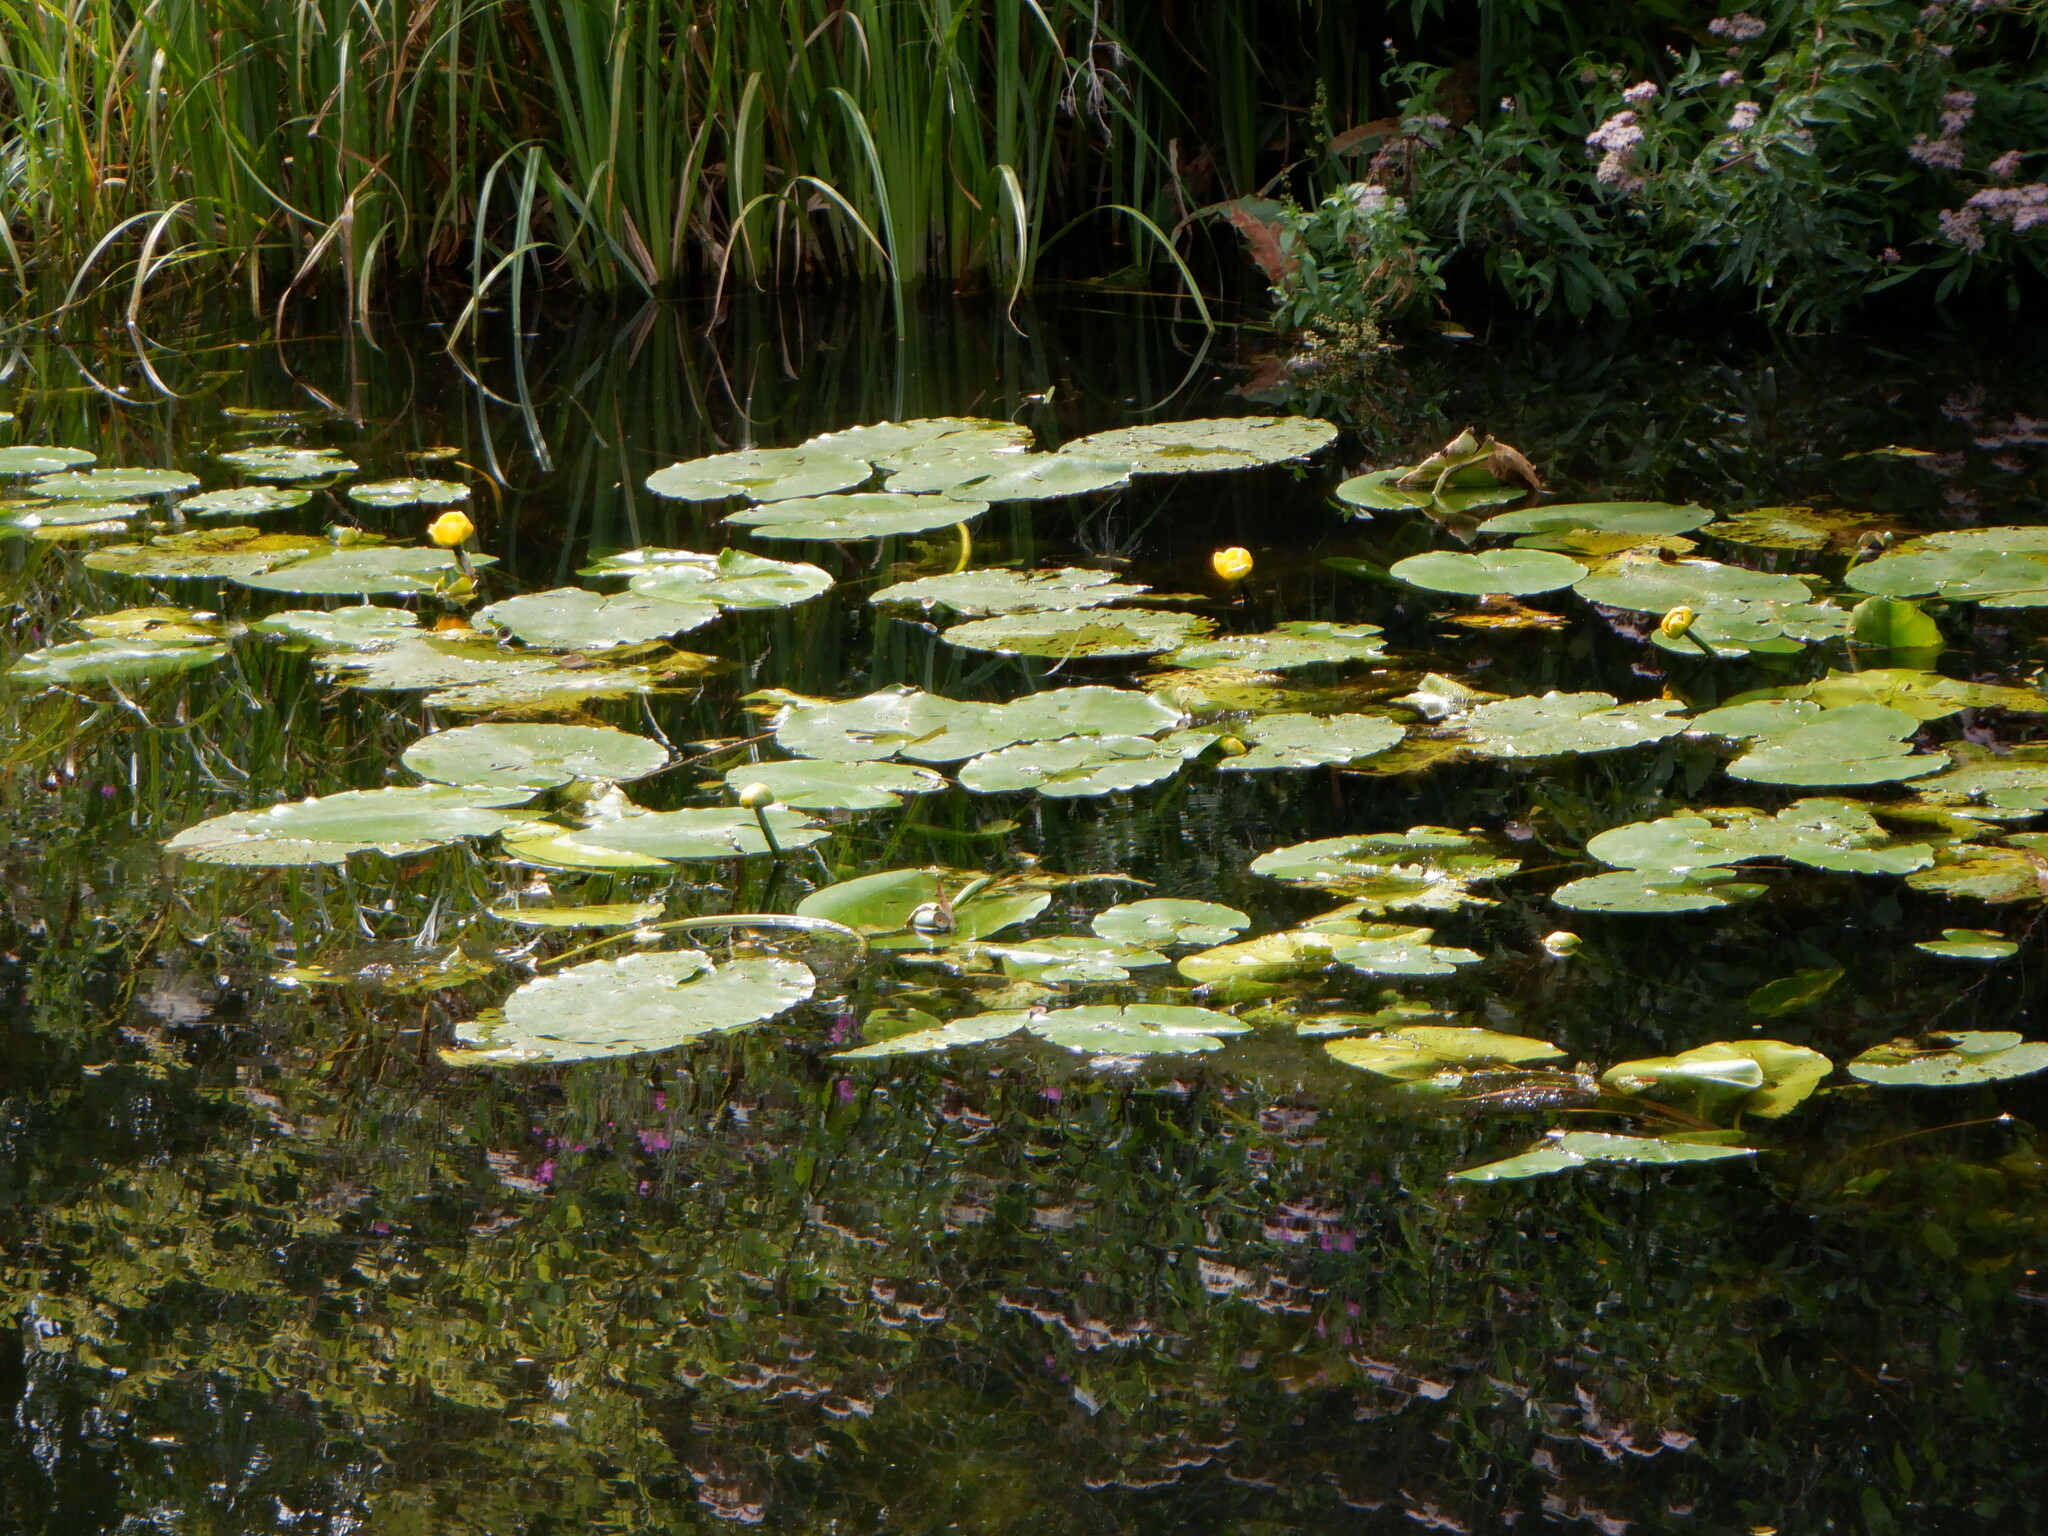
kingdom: Plantae
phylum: Tracheophyta
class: Magnoliopsida
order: Nymphaeales
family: Nymphaeaceae
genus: Nuphar
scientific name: Nuphar lutea
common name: Yellow water-lily
